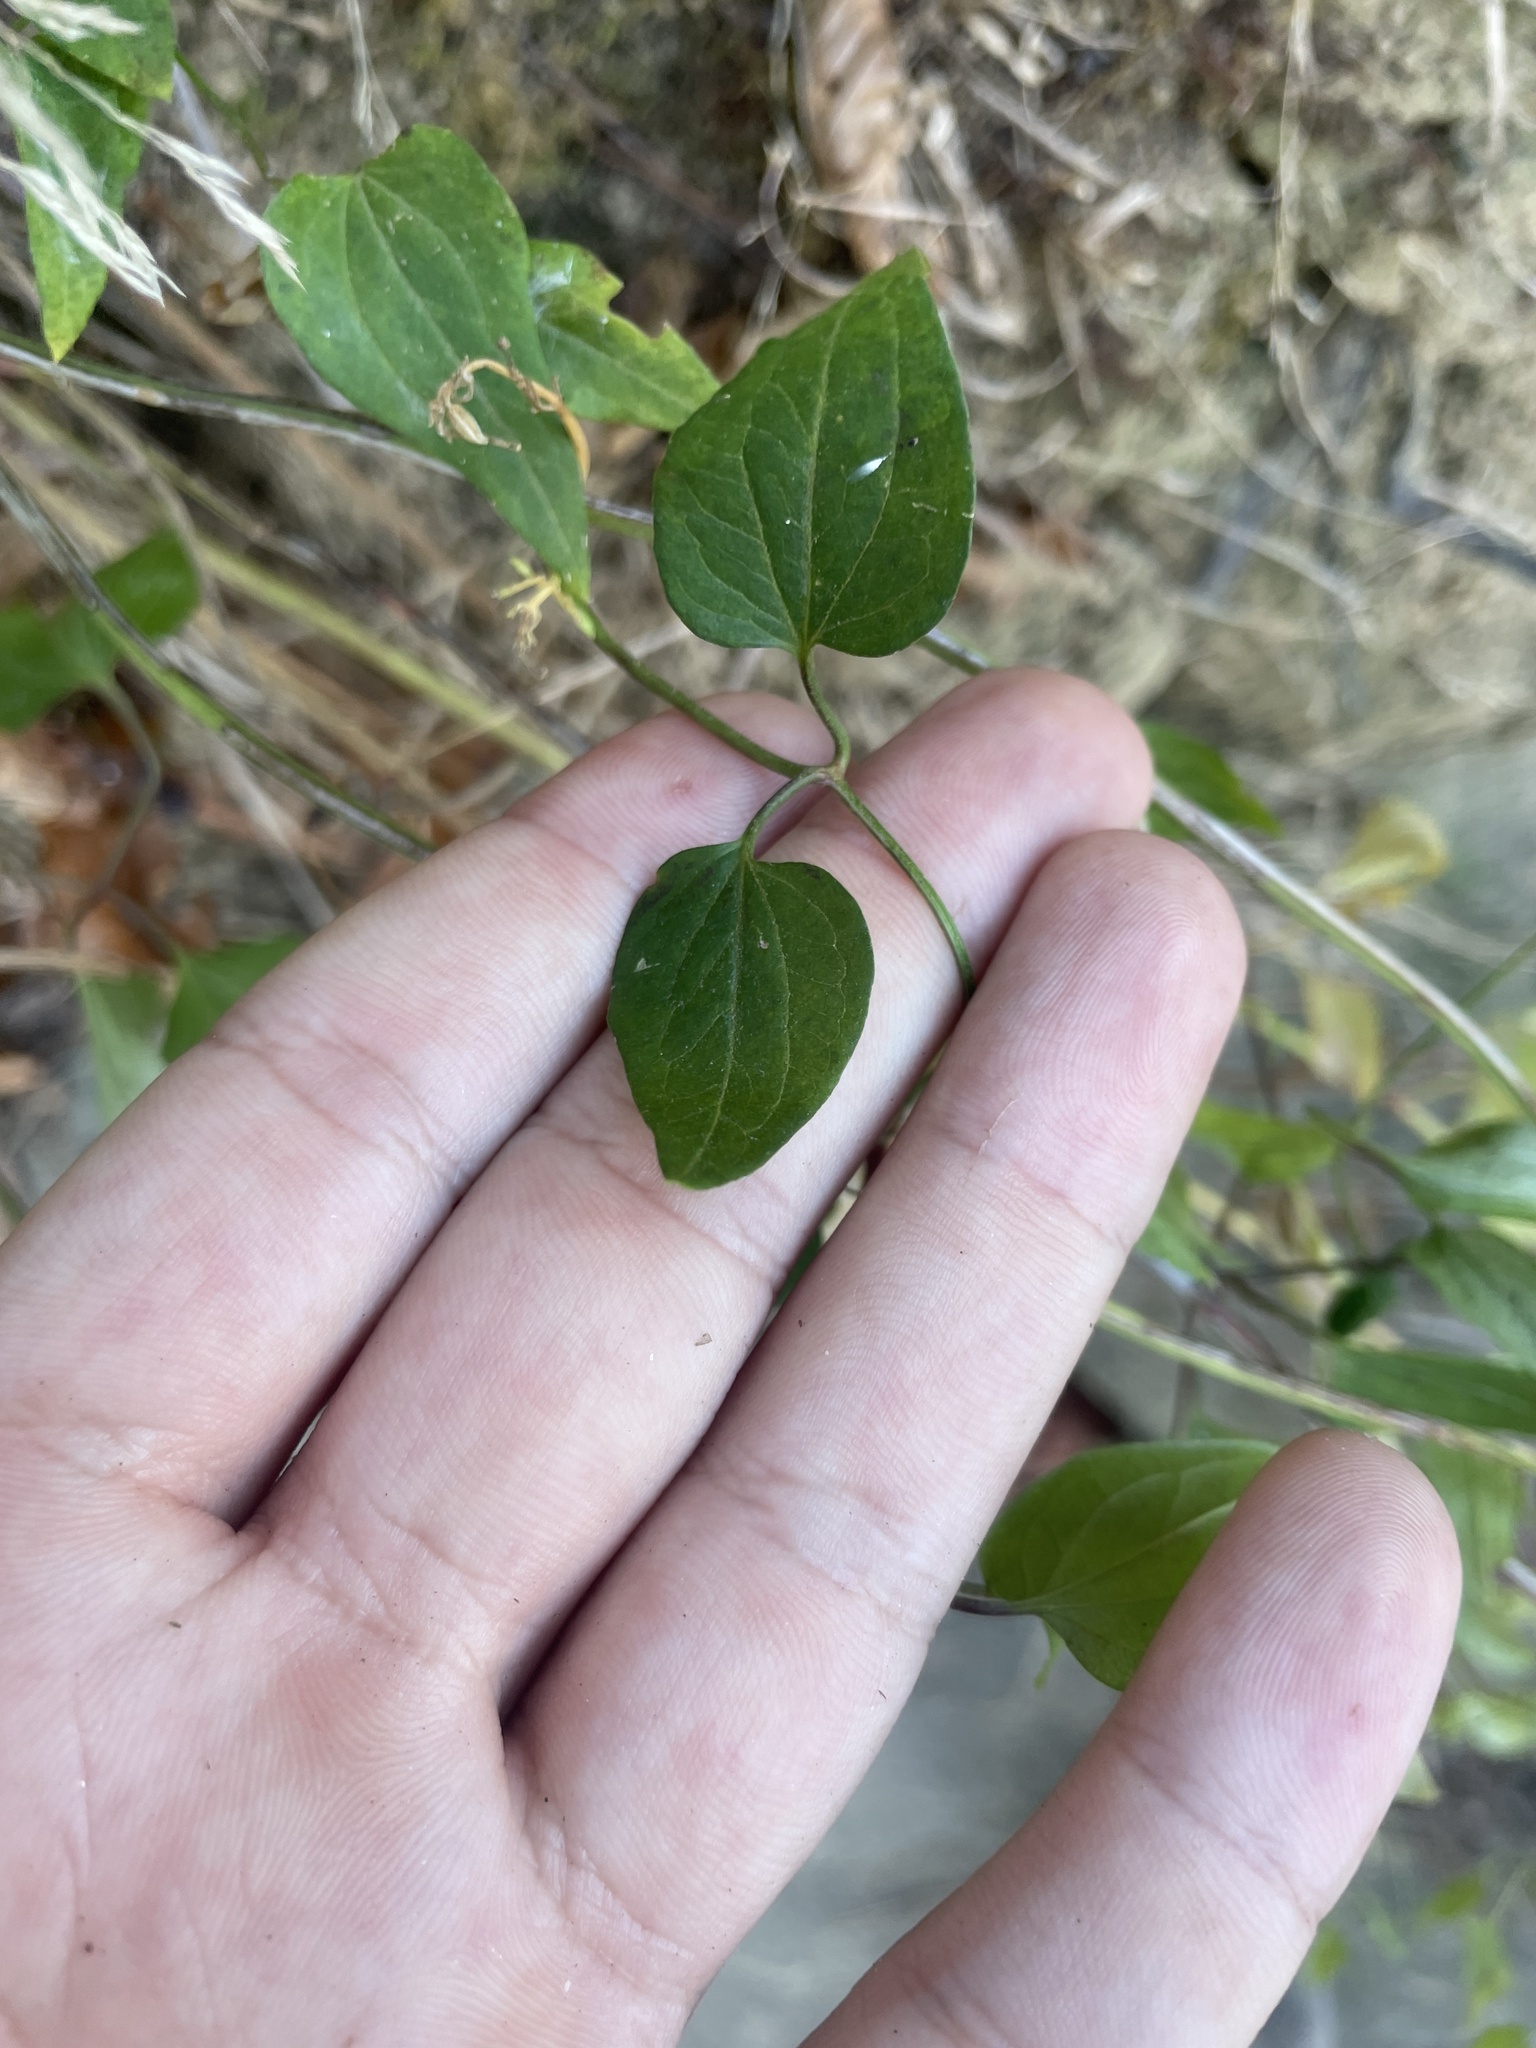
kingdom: Plantae
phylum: Tracheophyta
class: Magnoliopsida
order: Ranunculales
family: Ranunculaceae
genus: Clematis
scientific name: Clematis terniflora
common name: Sweet autumn clematis
